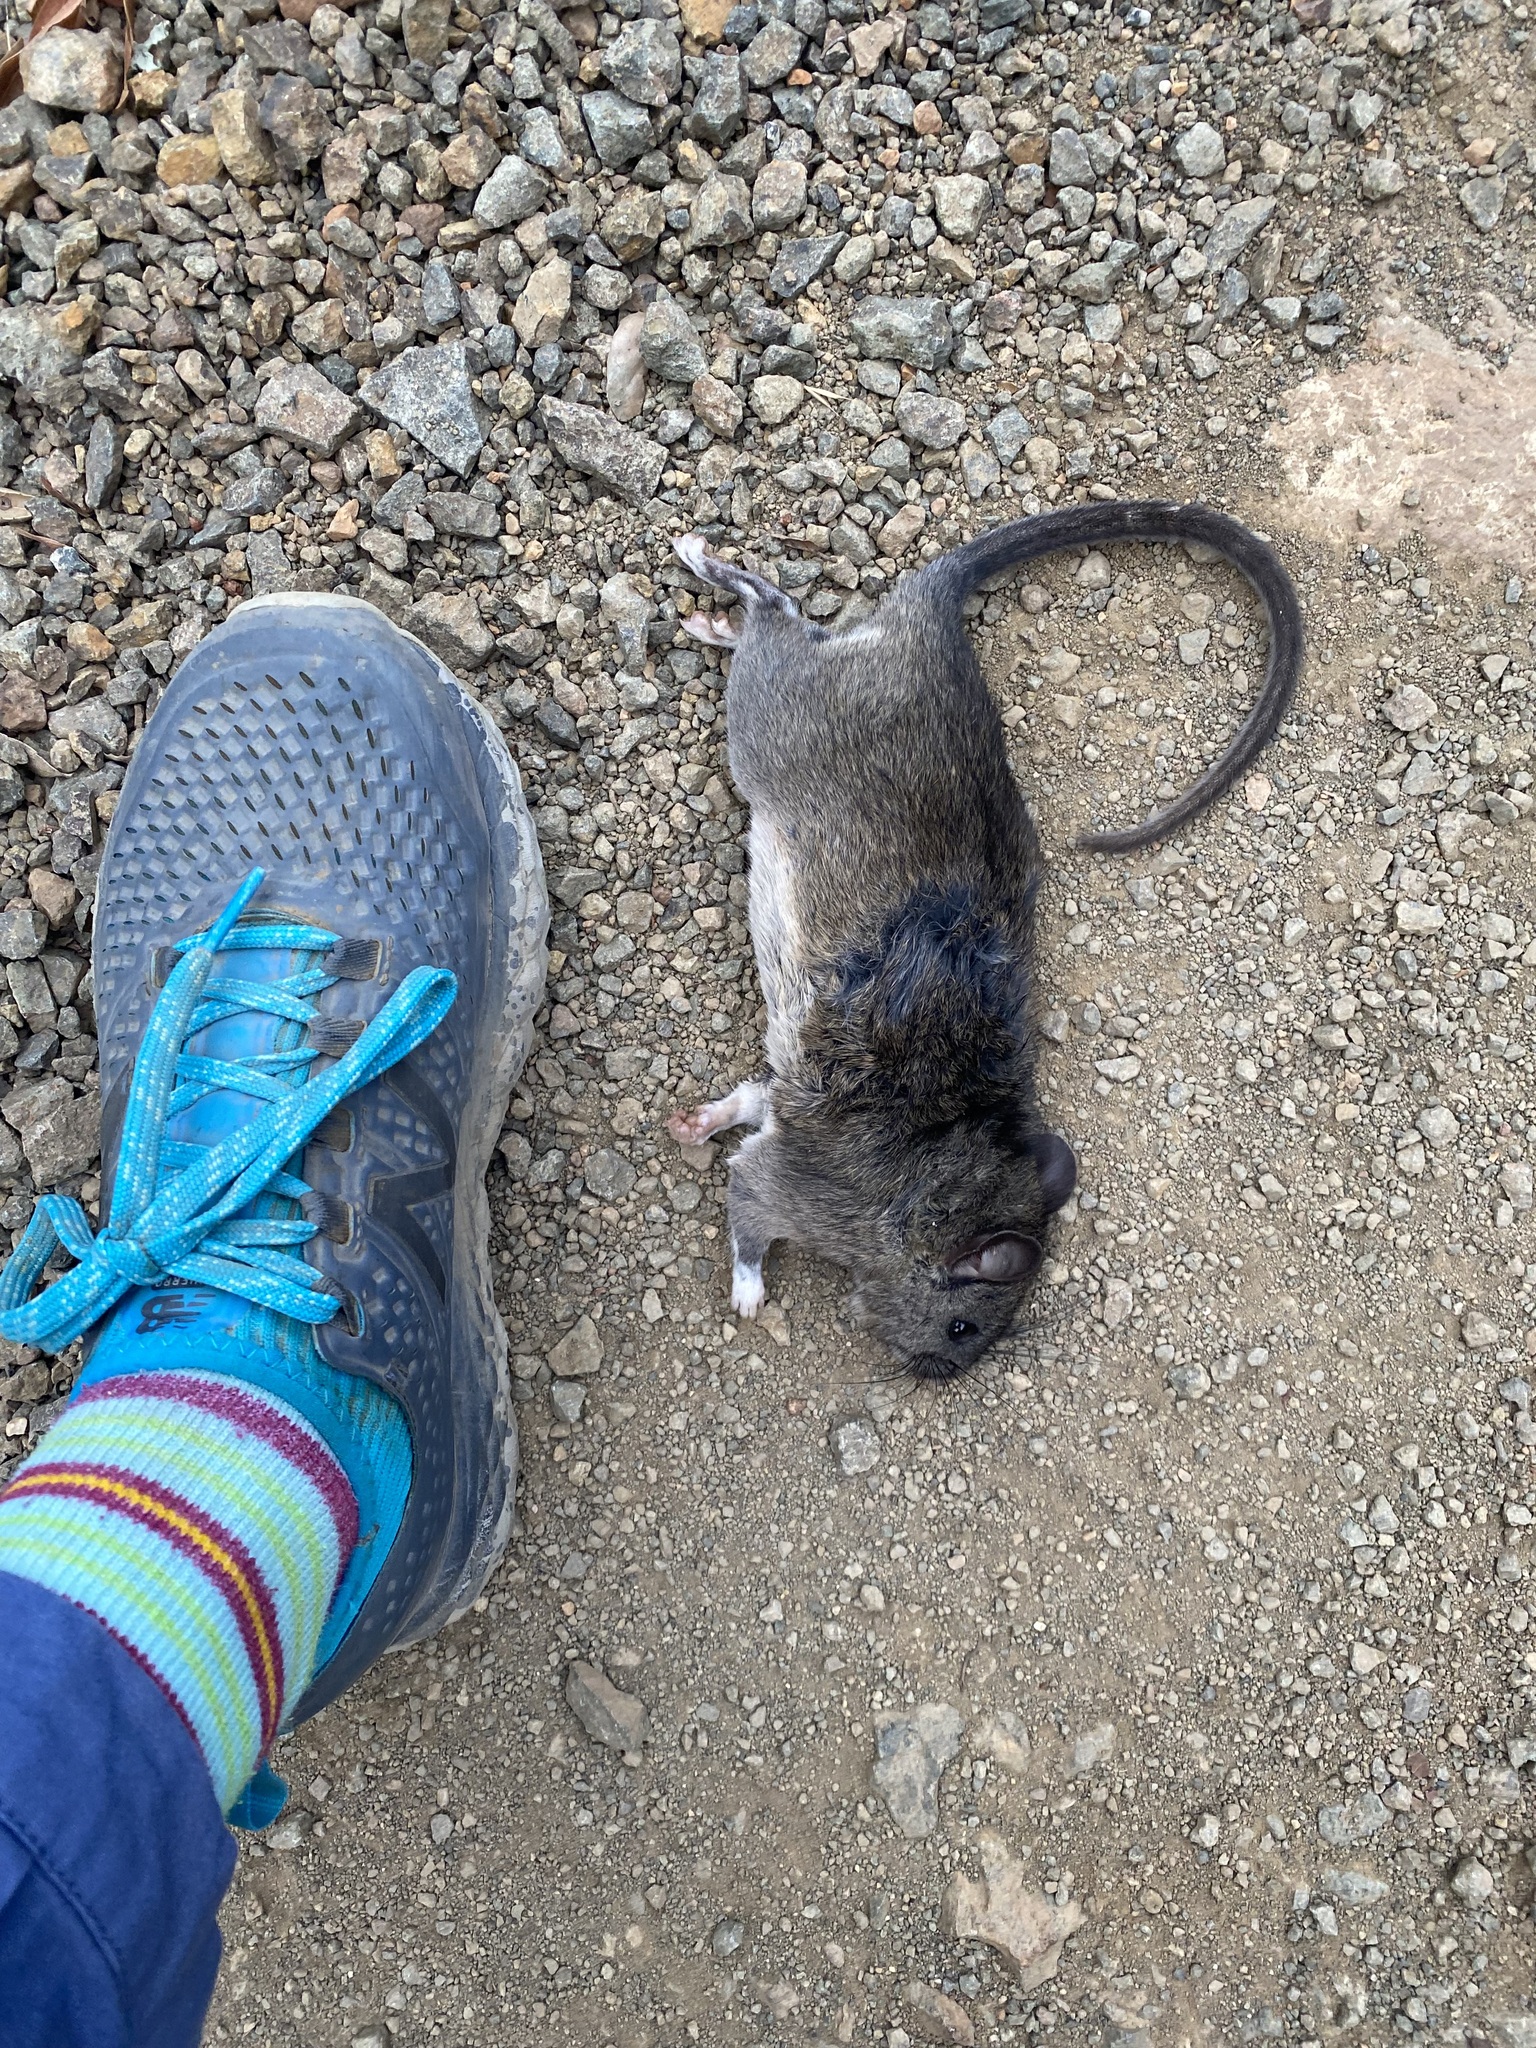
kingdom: Animalia
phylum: Chordata
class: Mammalia
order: Rodentia
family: Cricetidae
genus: Neotoma
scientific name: Neotoma fuscipes
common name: Dusky-footed woodrat
